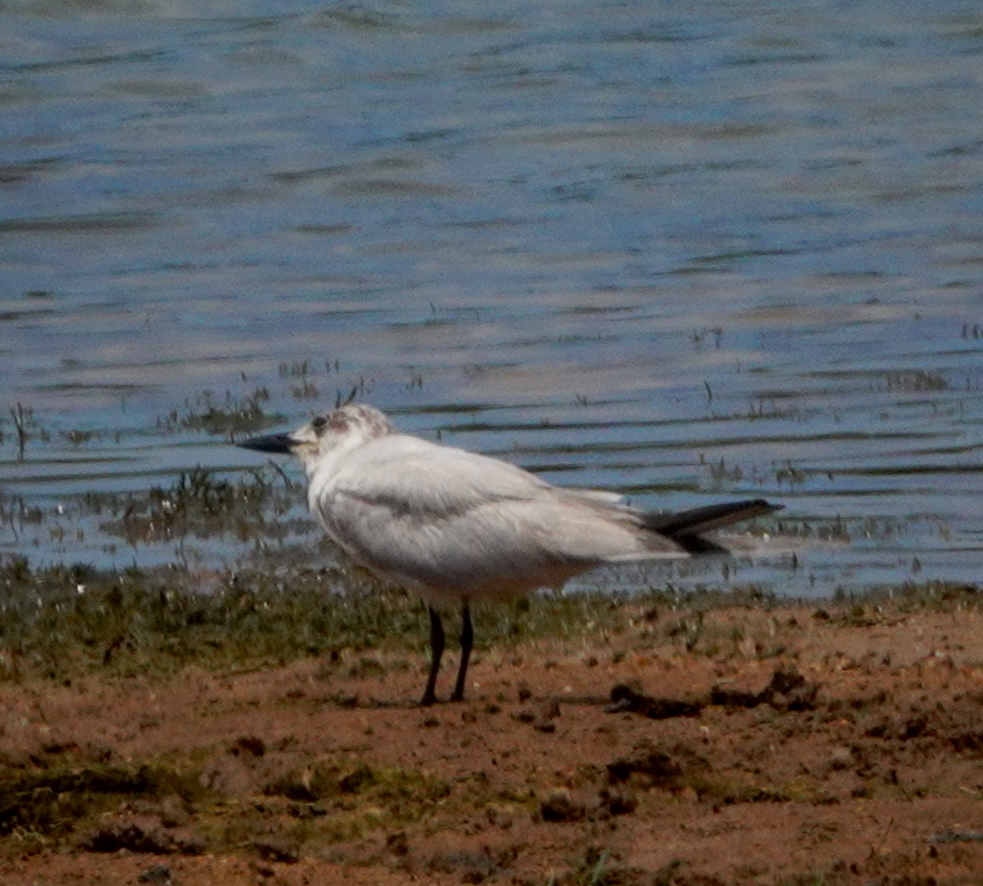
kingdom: Animalia
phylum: Chordata
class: Aves
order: Charadriiformes
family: Laridae
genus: Gelochelidon
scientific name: Gelochelidon nilotica
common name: Gull-billed tern
